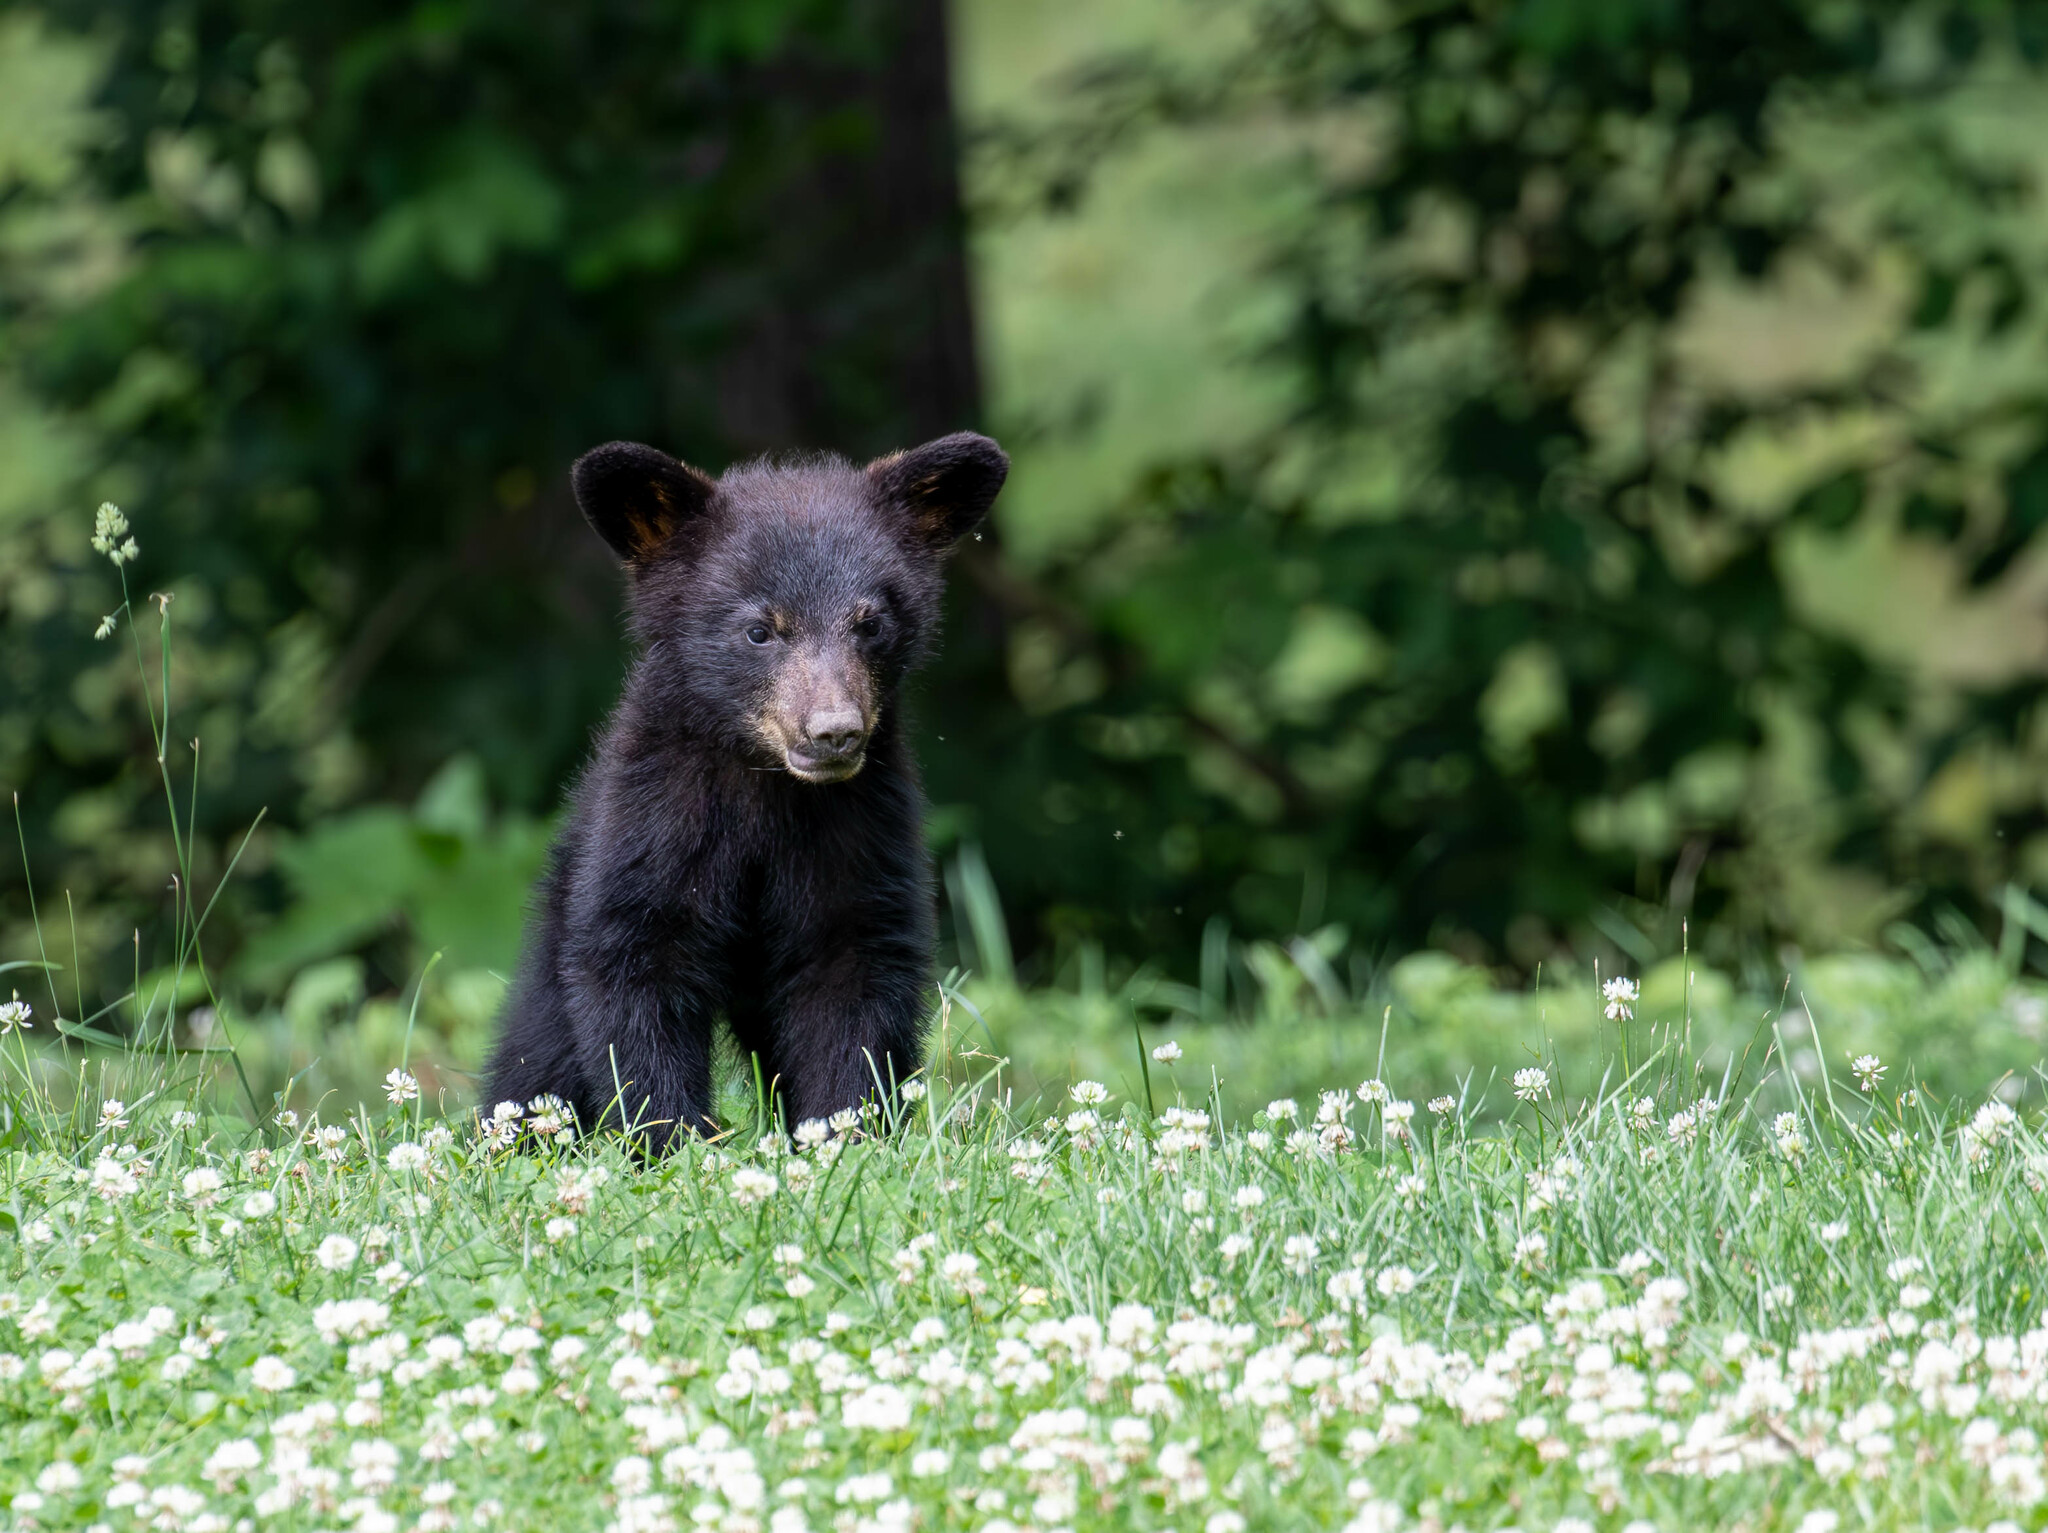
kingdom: Animalia
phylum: Chordata
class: Mammalia
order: Carnivora
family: Ursidae
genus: Ursus
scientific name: Ursus americanus
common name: American black bear
